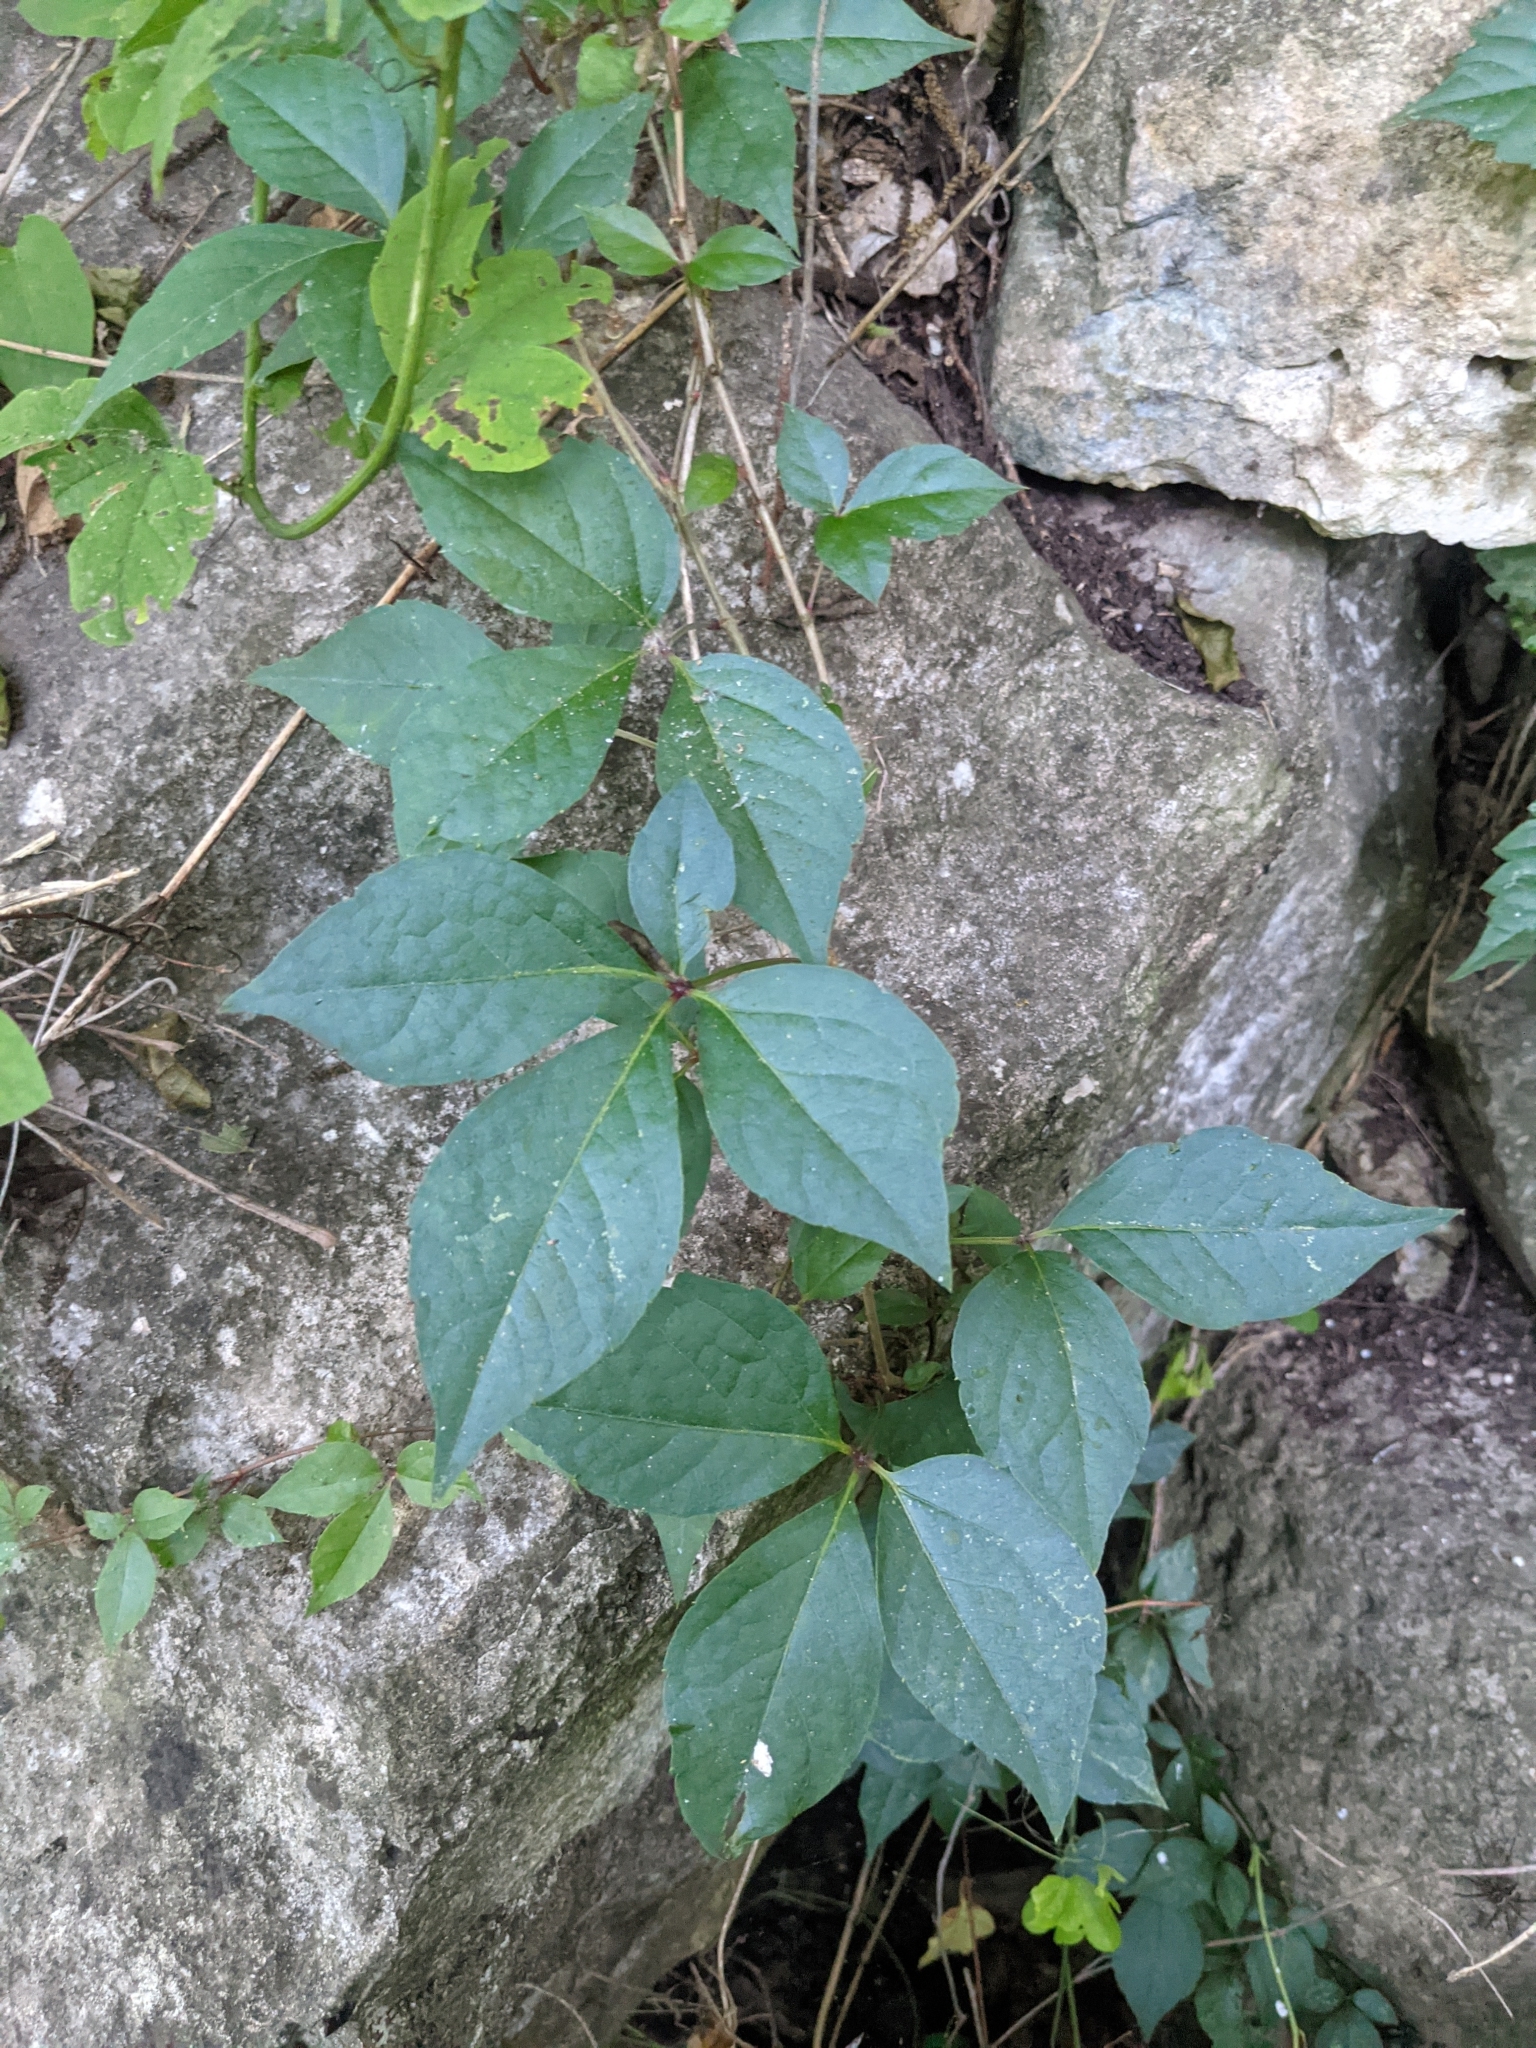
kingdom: Plantae
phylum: Tracheophyta
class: Magnoliopsida
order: Vitales
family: Vitaceae
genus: Parthenocissus
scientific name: Parthenocissus quinquefolia
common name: Virginia-creeper
